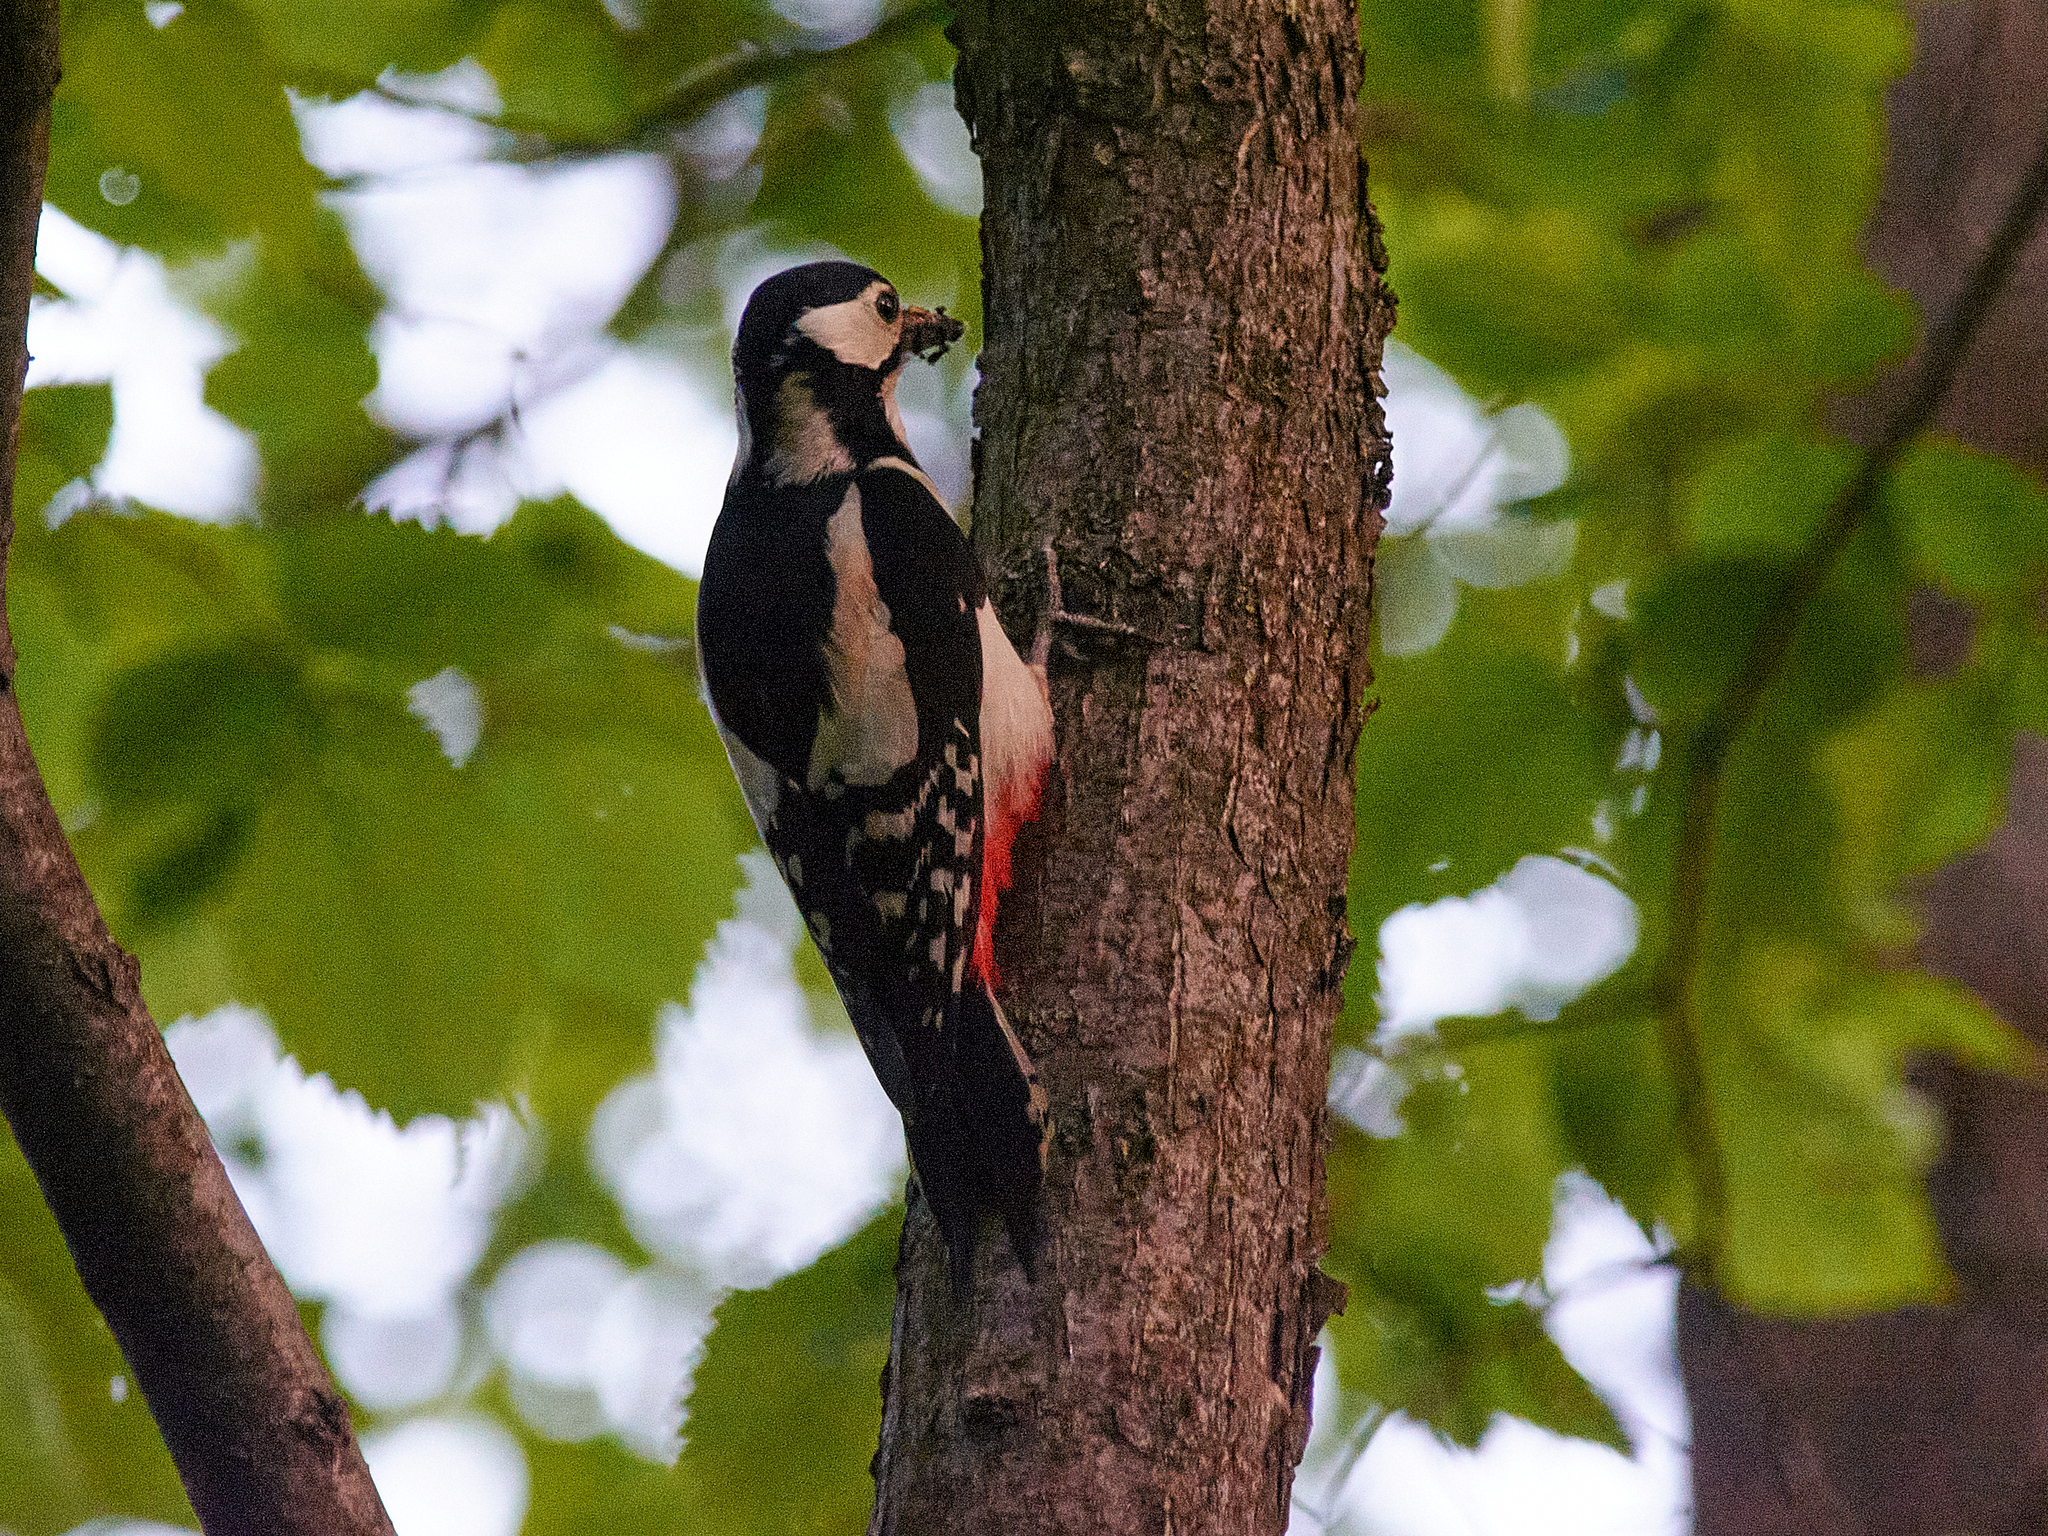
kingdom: Animalia
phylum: Chordata
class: Aves
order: Piciformes
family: Picidae
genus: Dendrocopos
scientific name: Dendrocopos major
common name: Great spotted woodpecker
